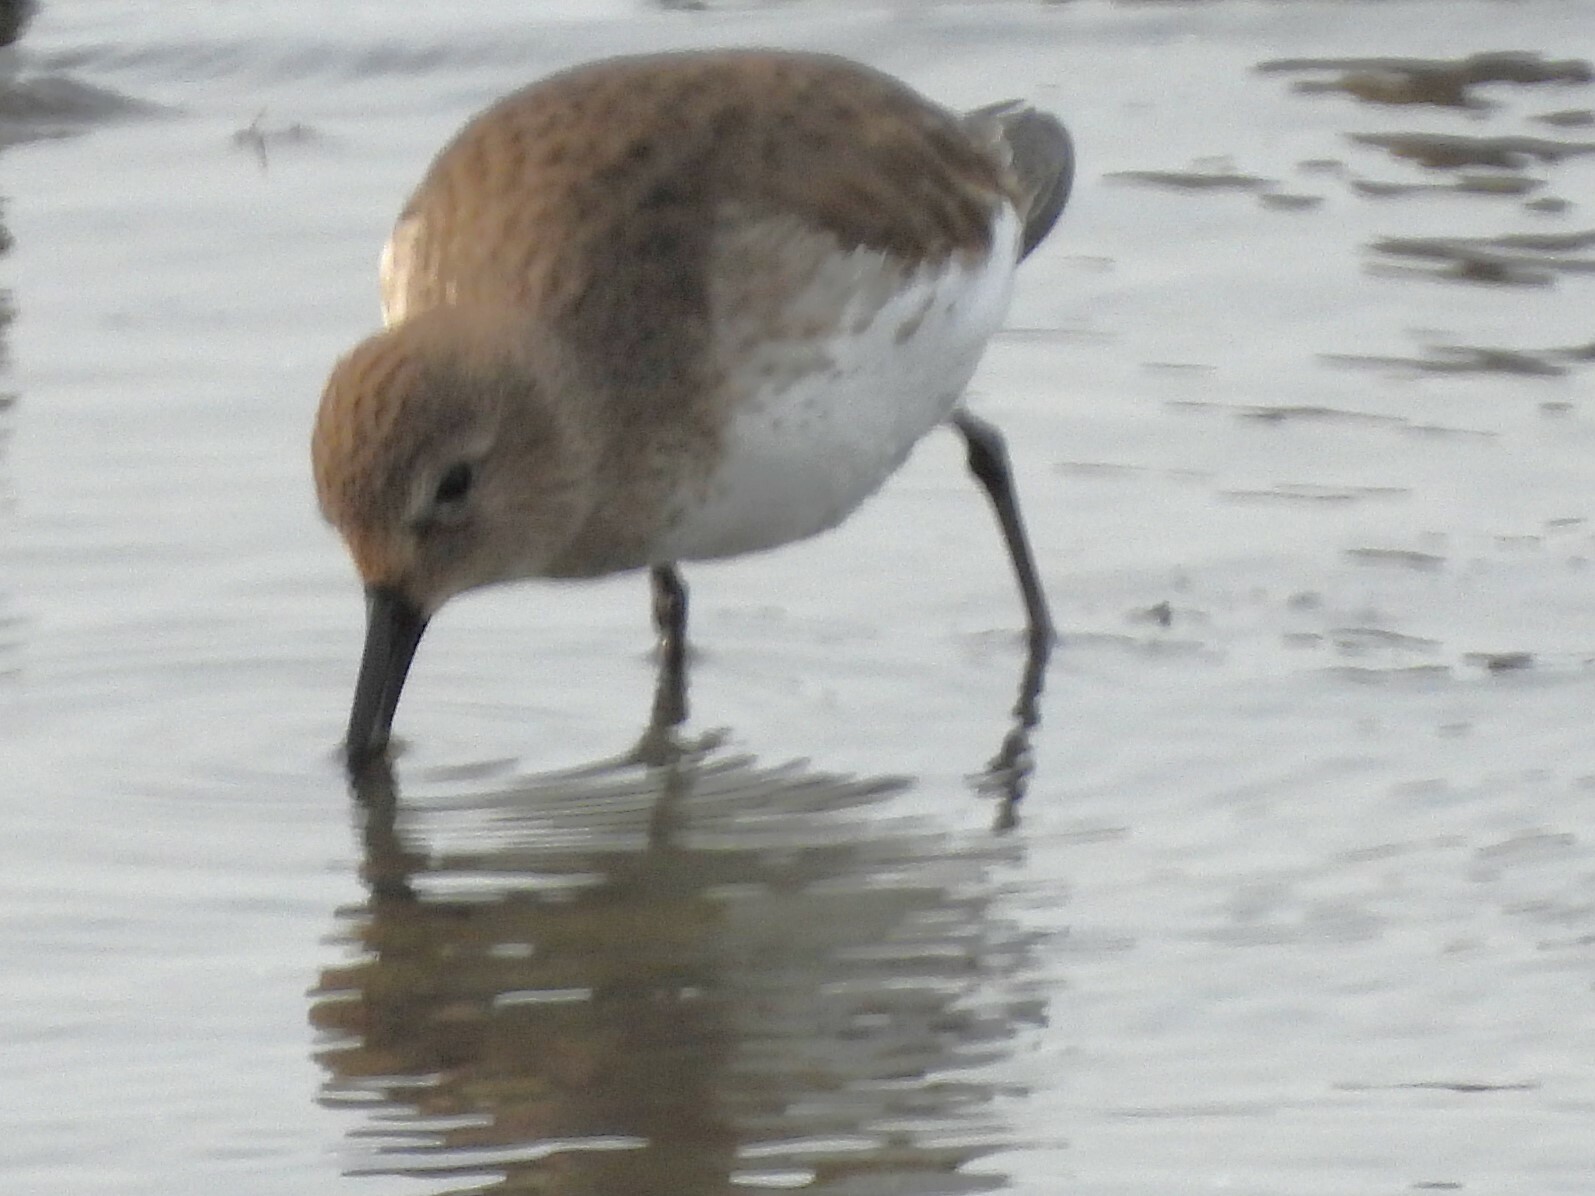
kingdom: Animalia
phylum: Chordata
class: Aves
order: Charadriiformes
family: Scolopacidae
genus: Calidris
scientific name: Calidris alpina
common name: Dunlin
